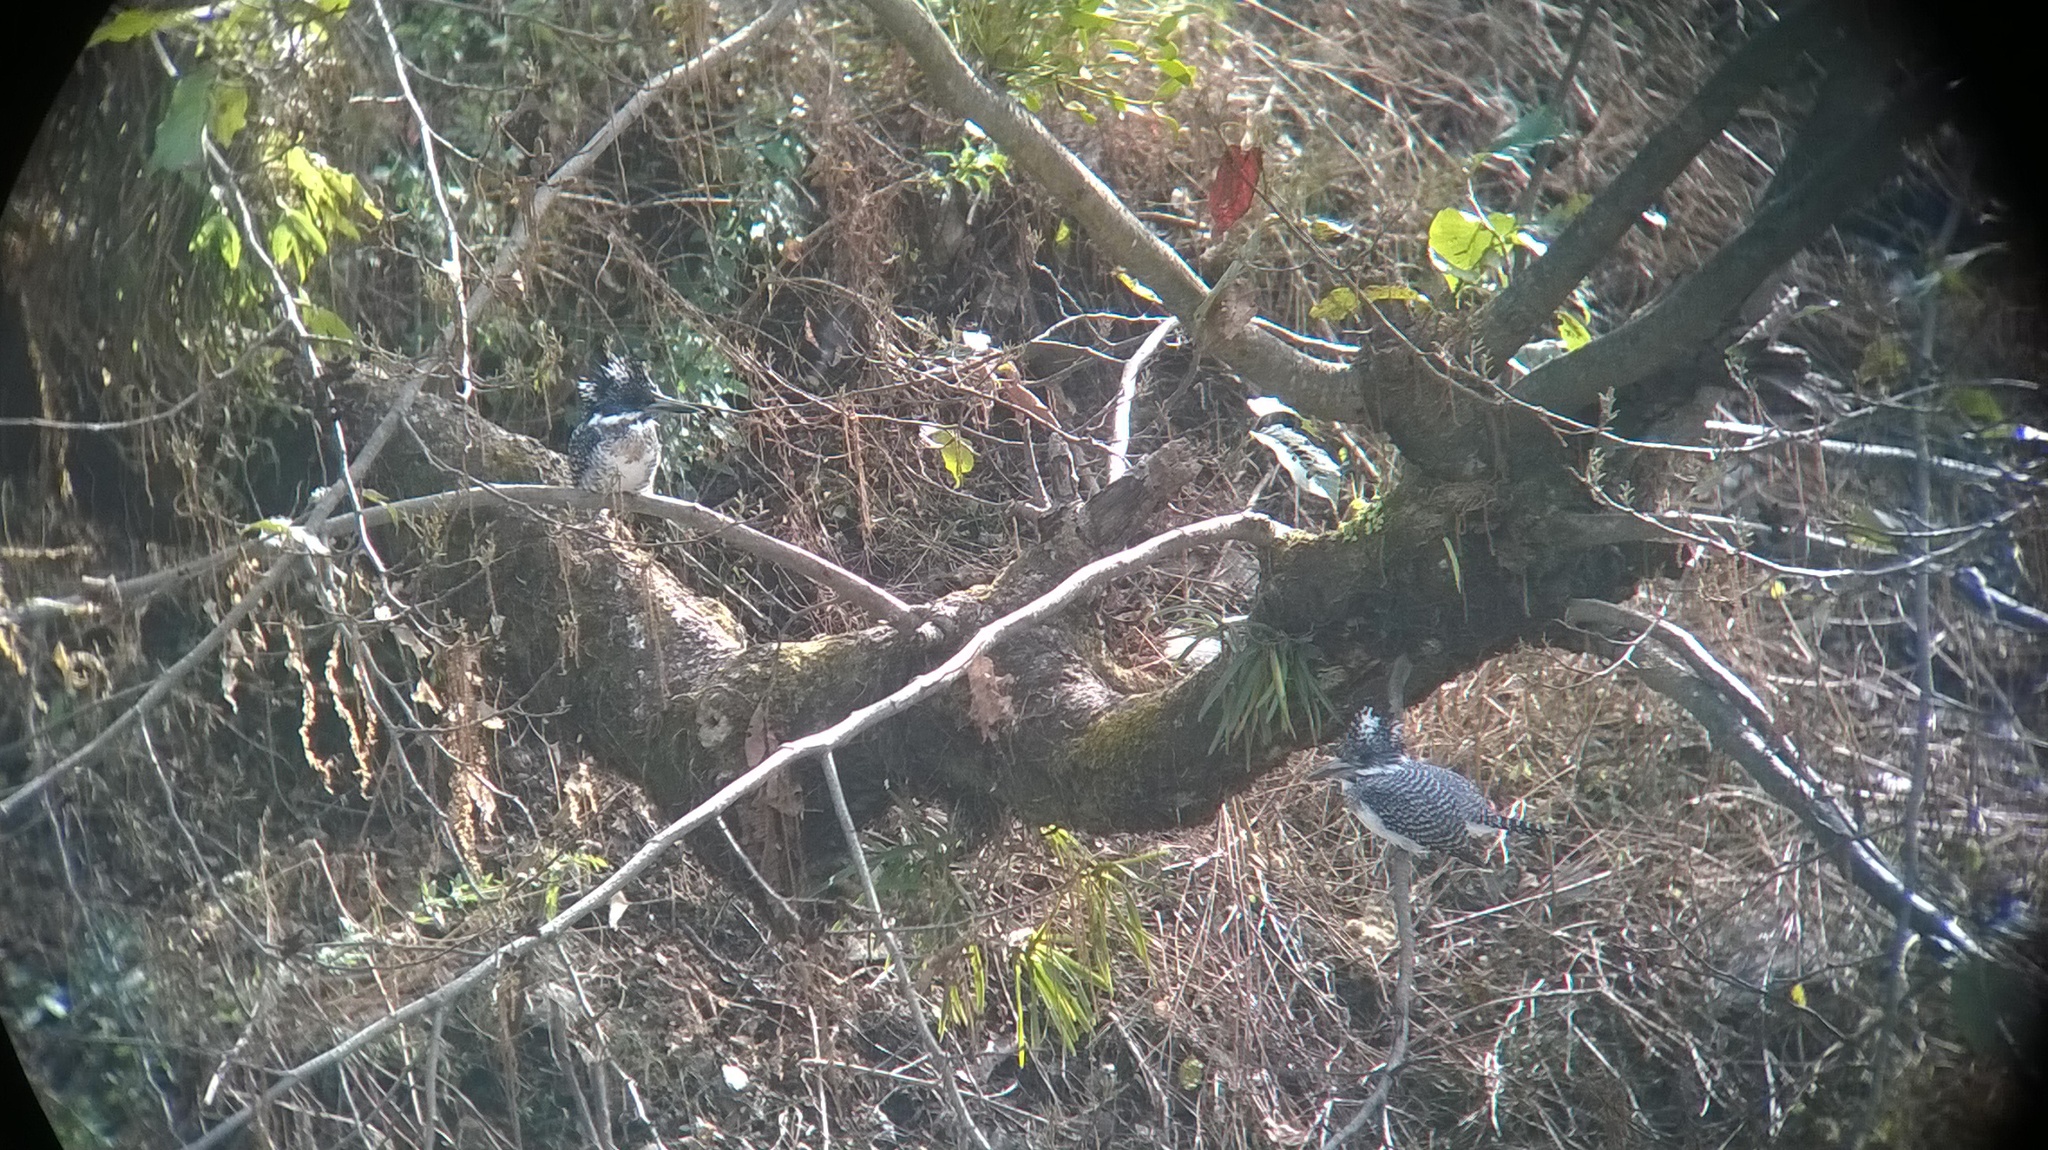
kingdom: Animalia
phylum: Chordata
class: Aves
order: Coraciiformes
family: Alcedinidae
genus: Megaceryle
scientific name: Megaceryle lugubris
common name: Crested kingfisher
